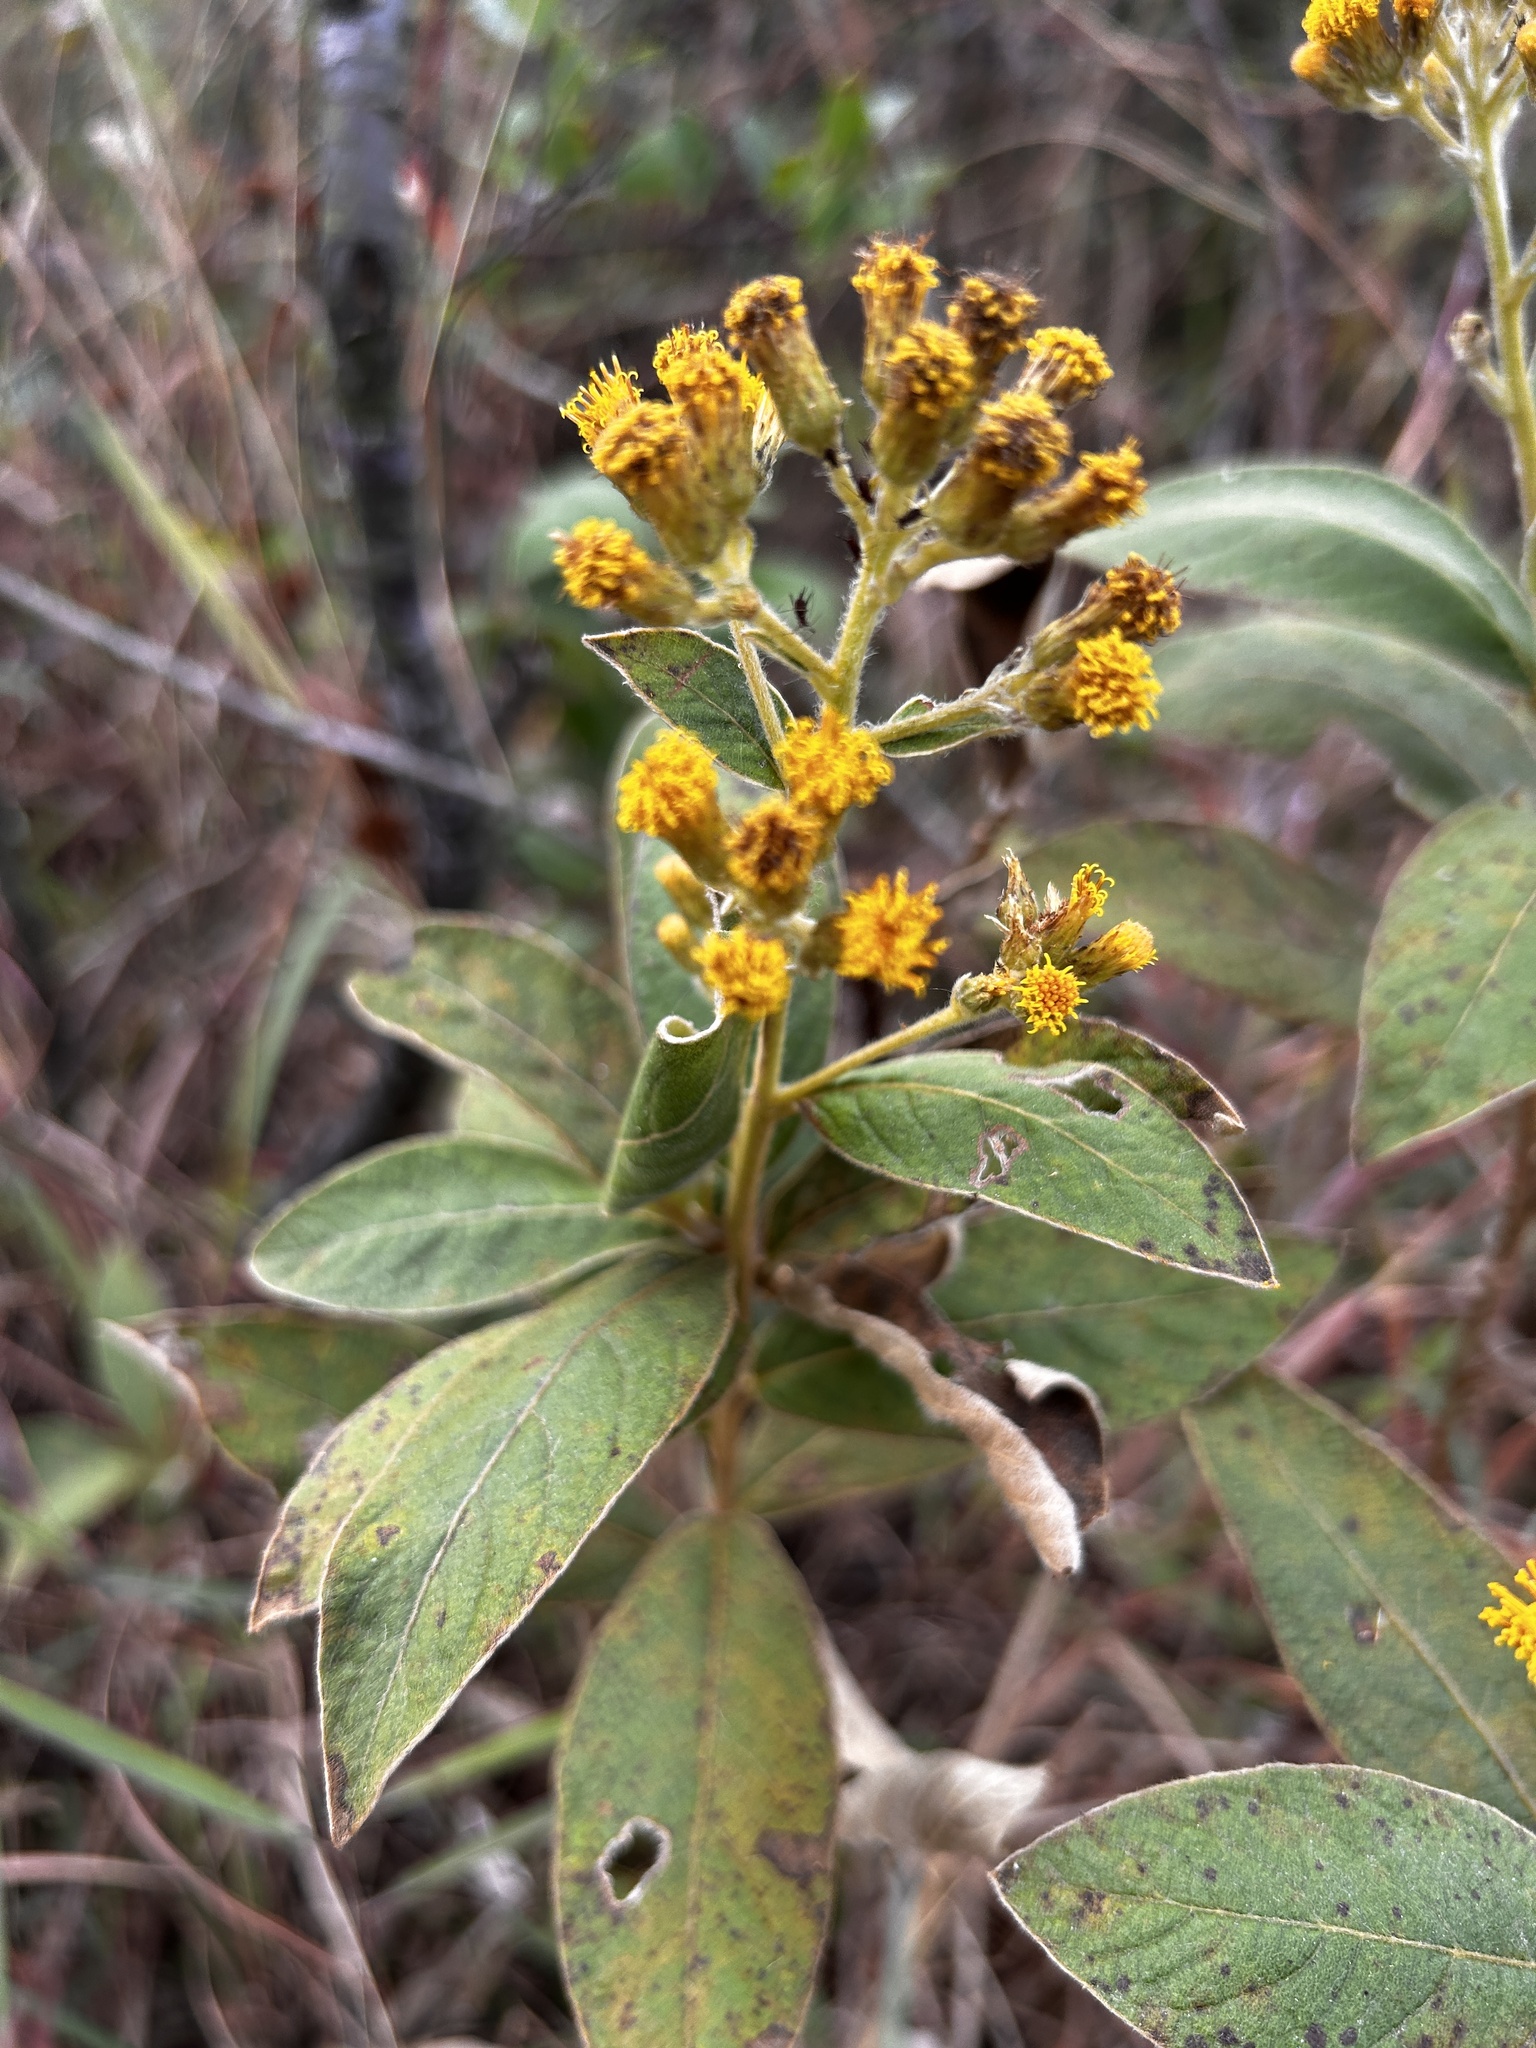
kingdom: Plantae
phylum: Tracheophyta
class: Magnoliopsida
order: Asterales
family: Asteraceae
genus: Duhaldea
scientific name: Duhaldea cappa
